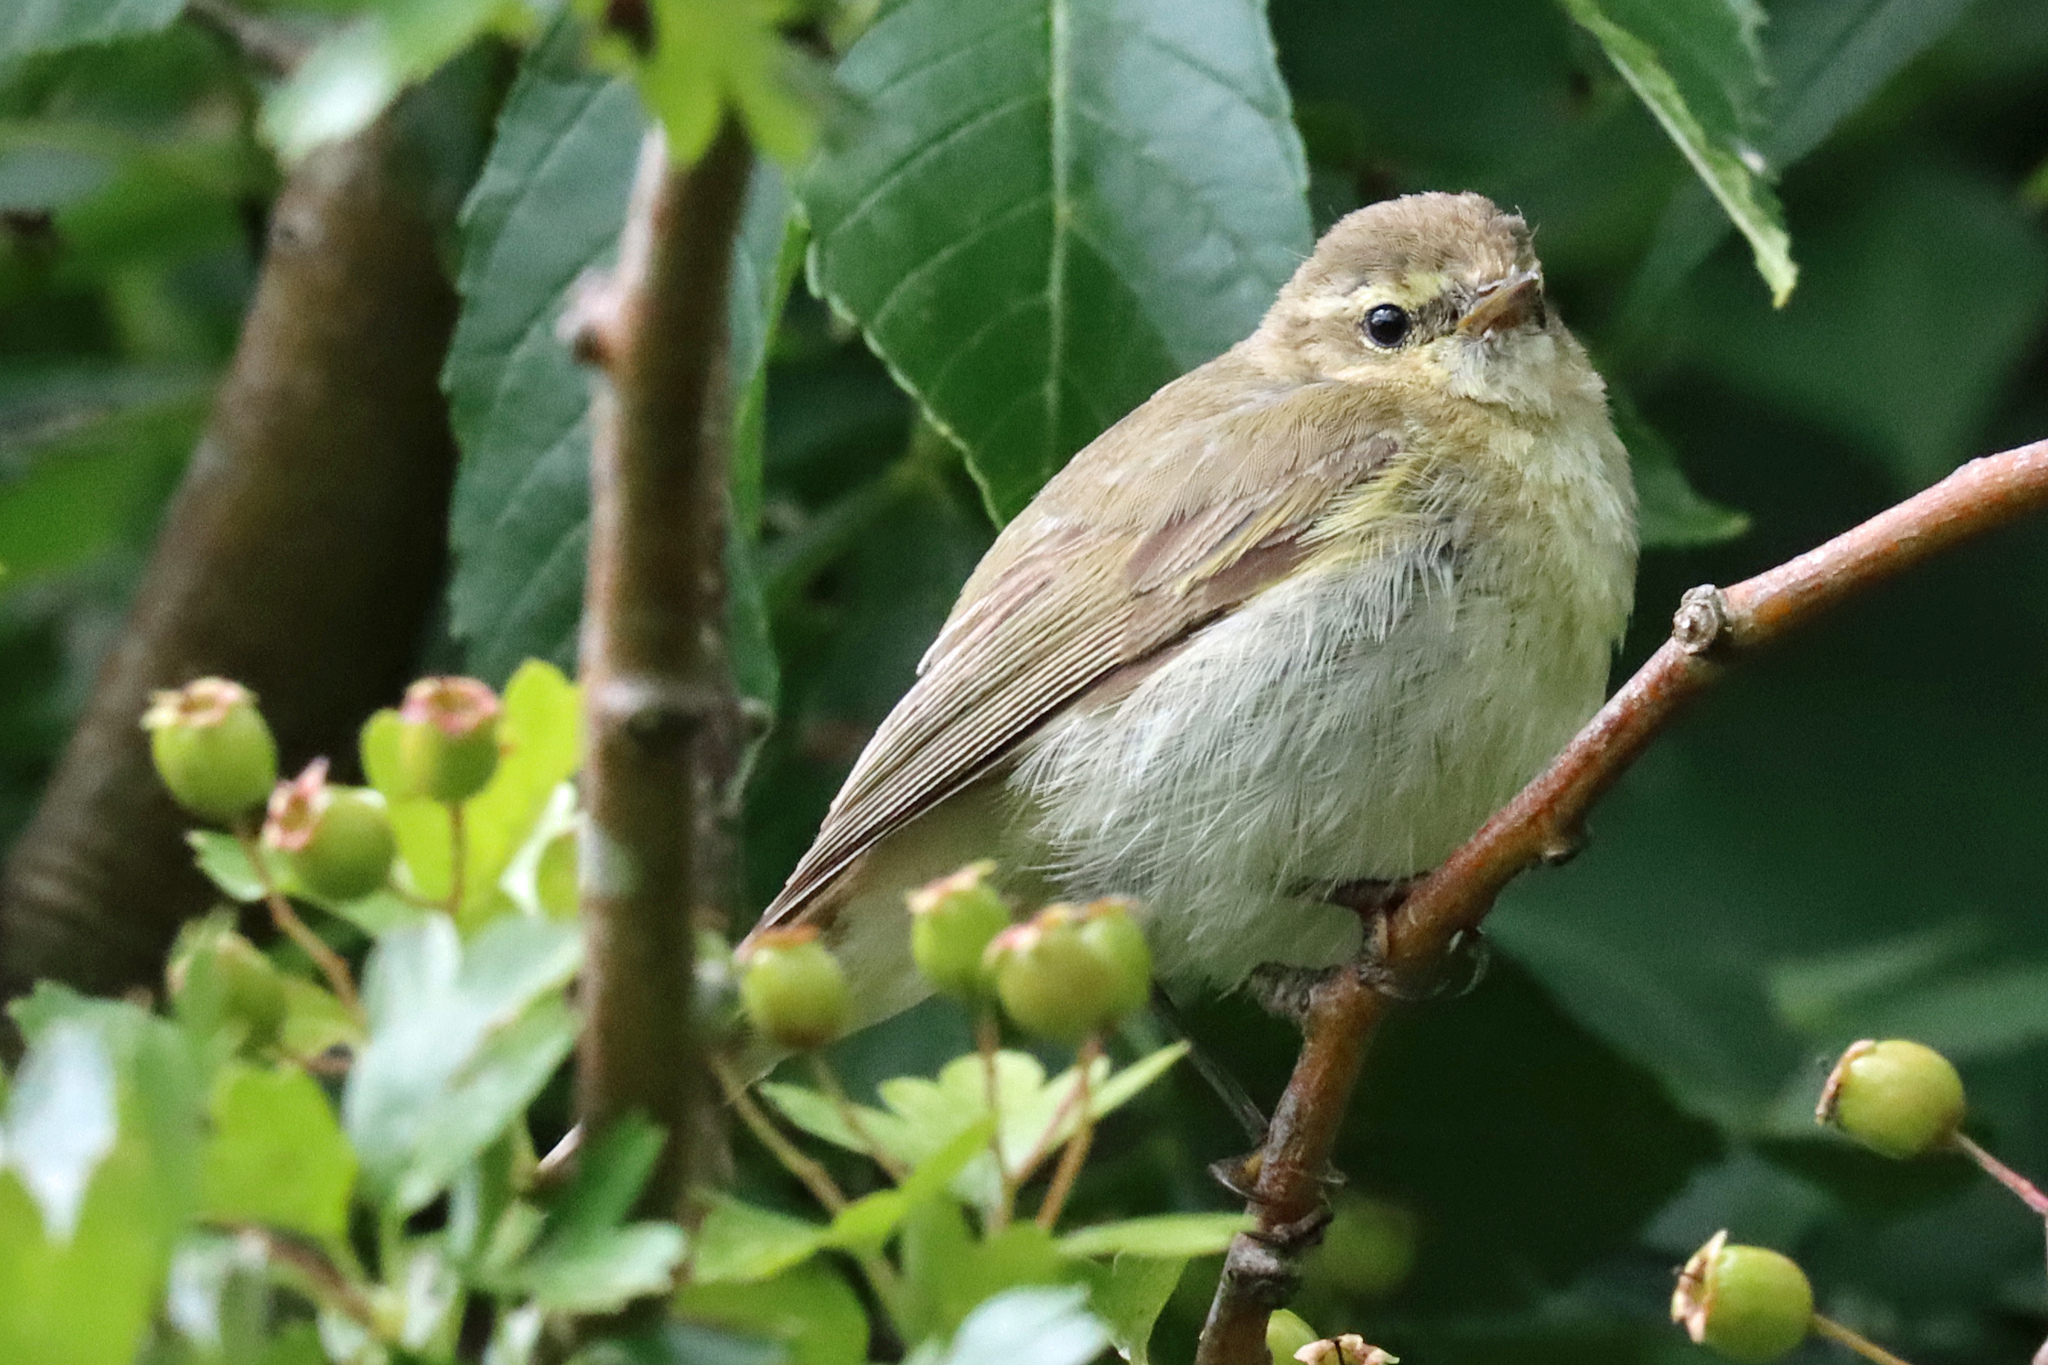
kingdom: Animalia
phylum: Chordata
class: Aves
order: Passeriformes
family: Phylloscopidae
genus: Phylloscopus
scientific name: Phylloscopus collybita
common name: Common chiffchaff
